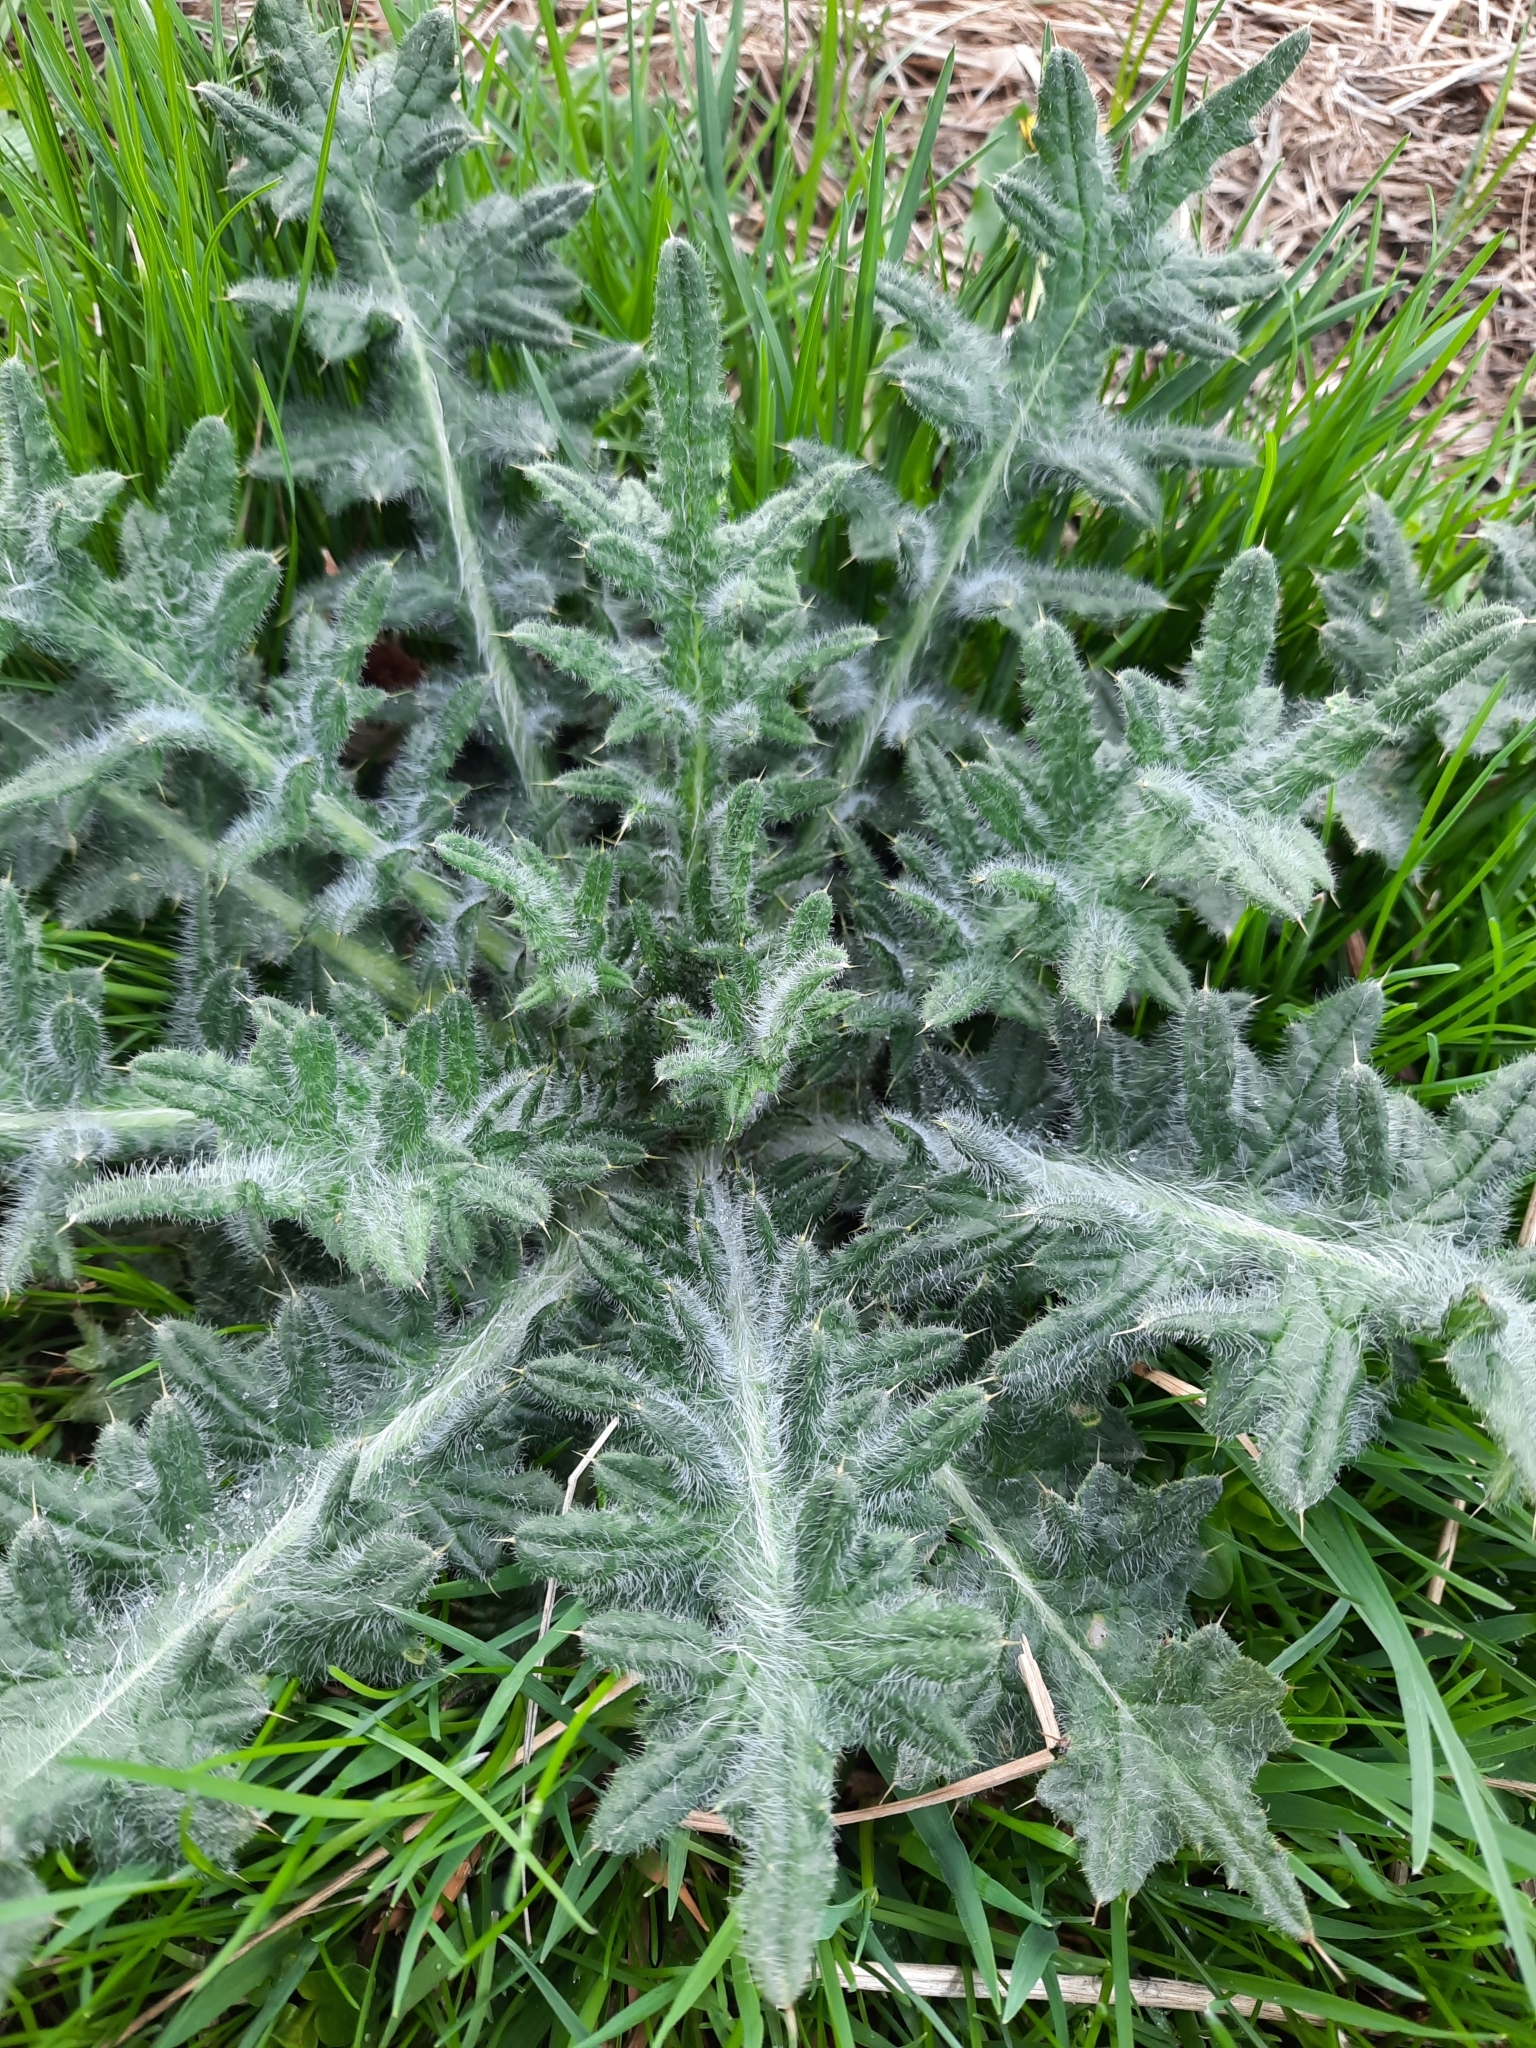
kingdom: Plantae
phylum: Tracheophyta
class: Magnoliopsida
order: Asterales
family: Asteraceae
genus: Cirsium
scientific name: Cirsium vulgare
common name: Bull thistle
